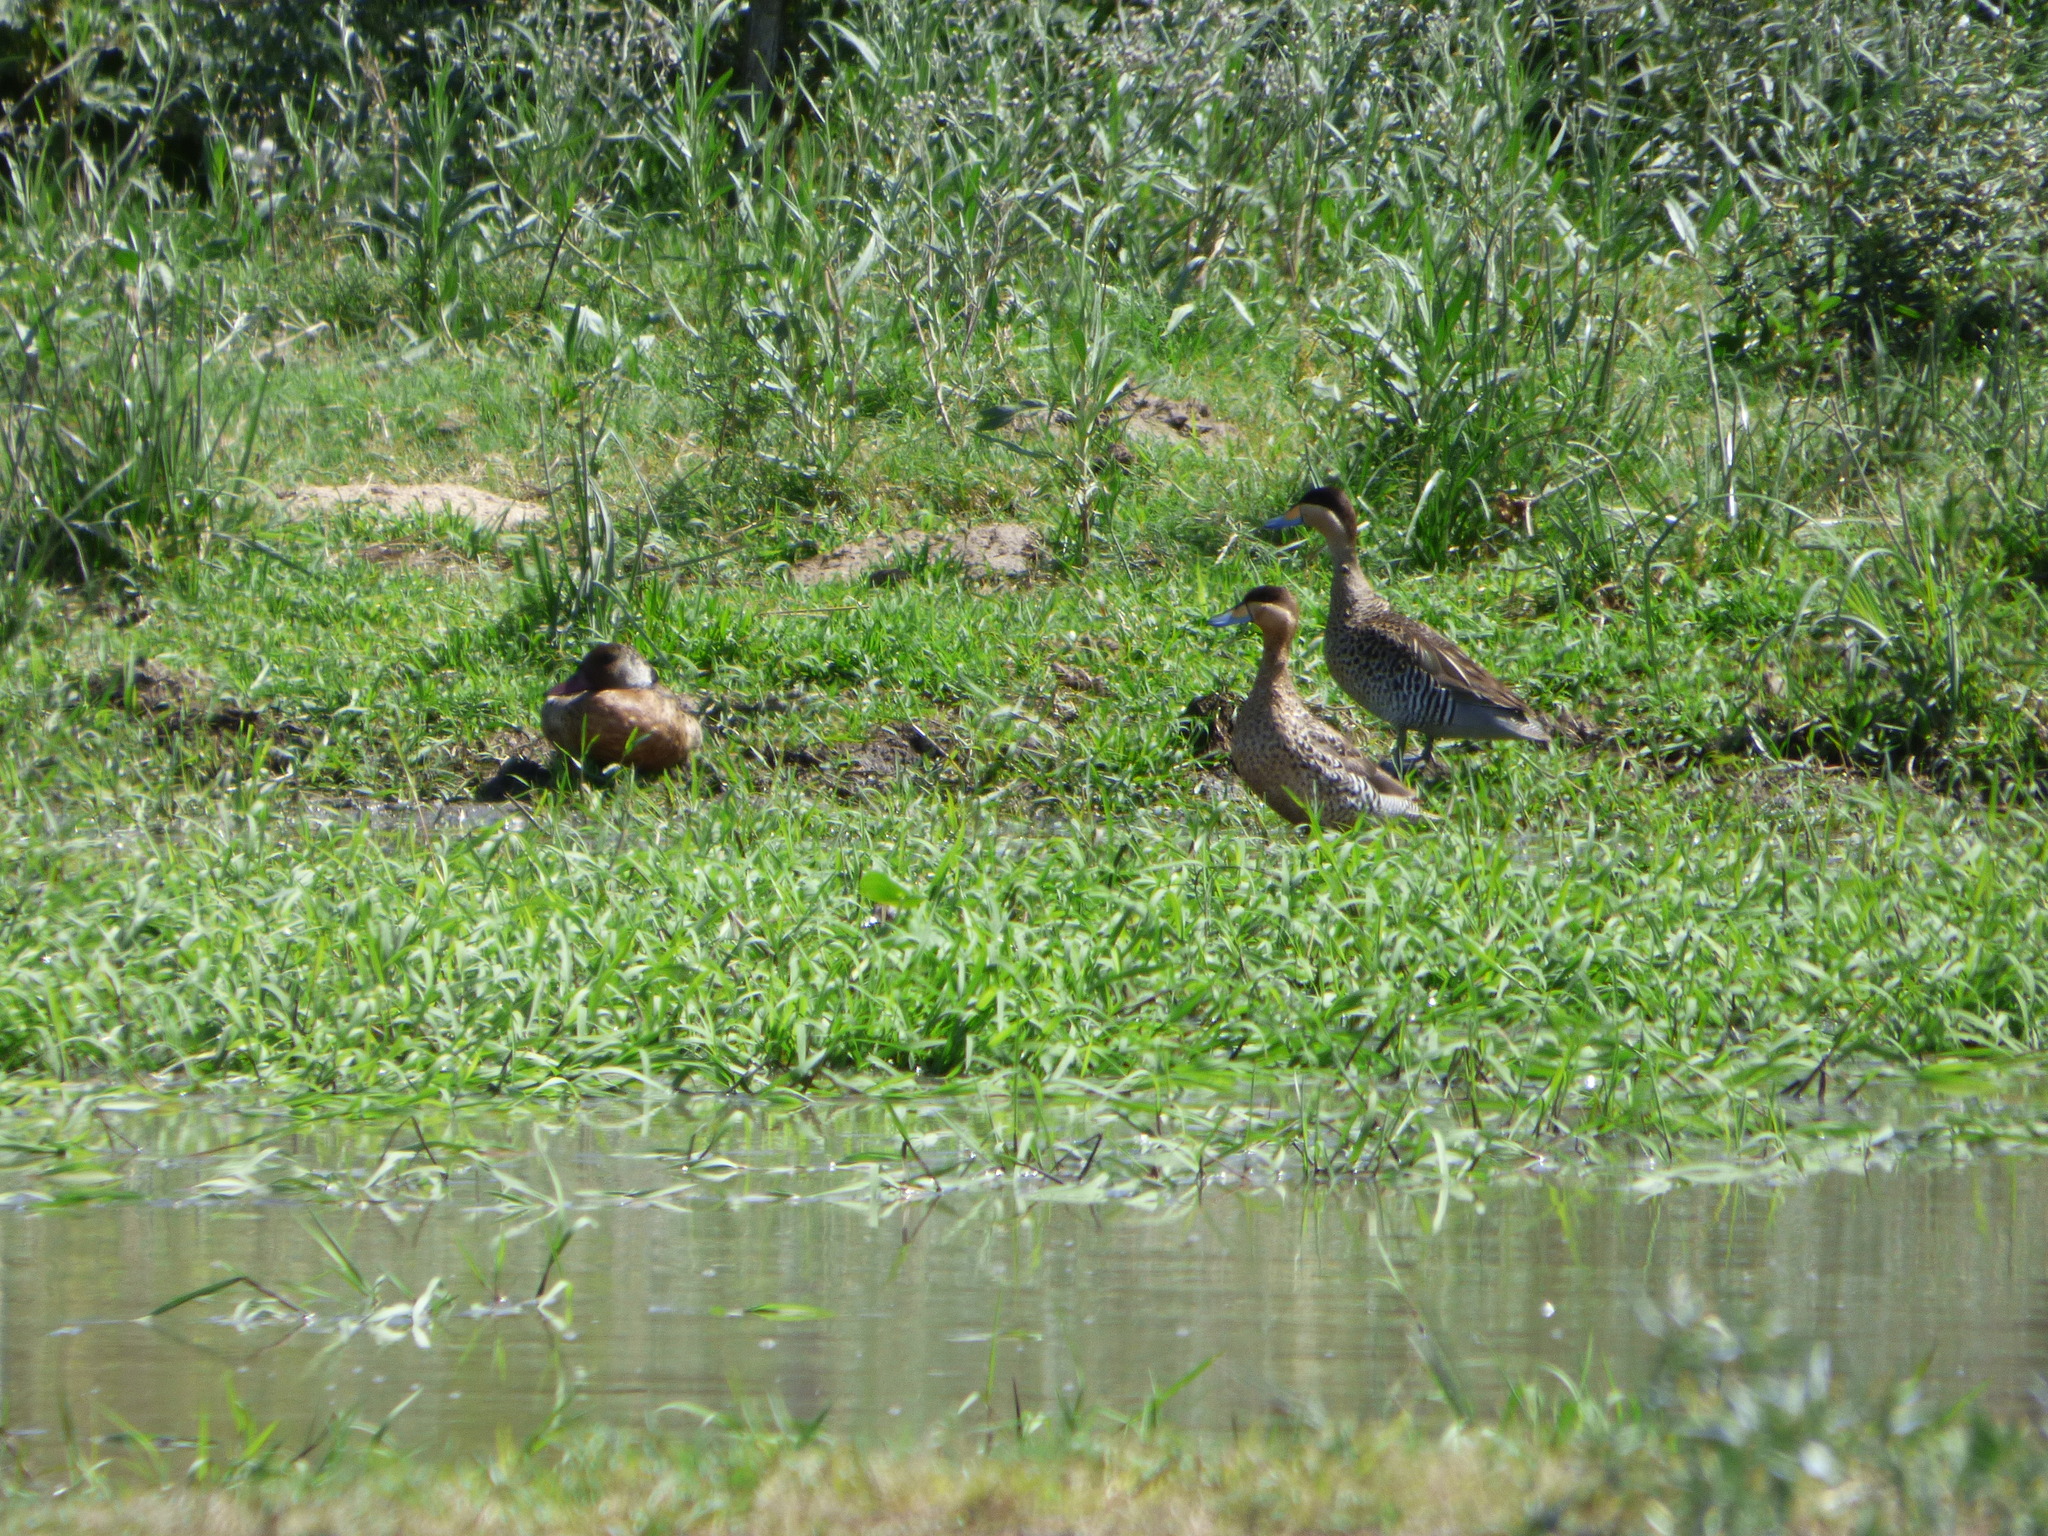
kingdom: Animalia
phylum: Chordata
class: Aves
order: Anseriformes
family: Anatidae
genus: Spatula
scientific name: Spatula versicolor
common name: Silver teal
